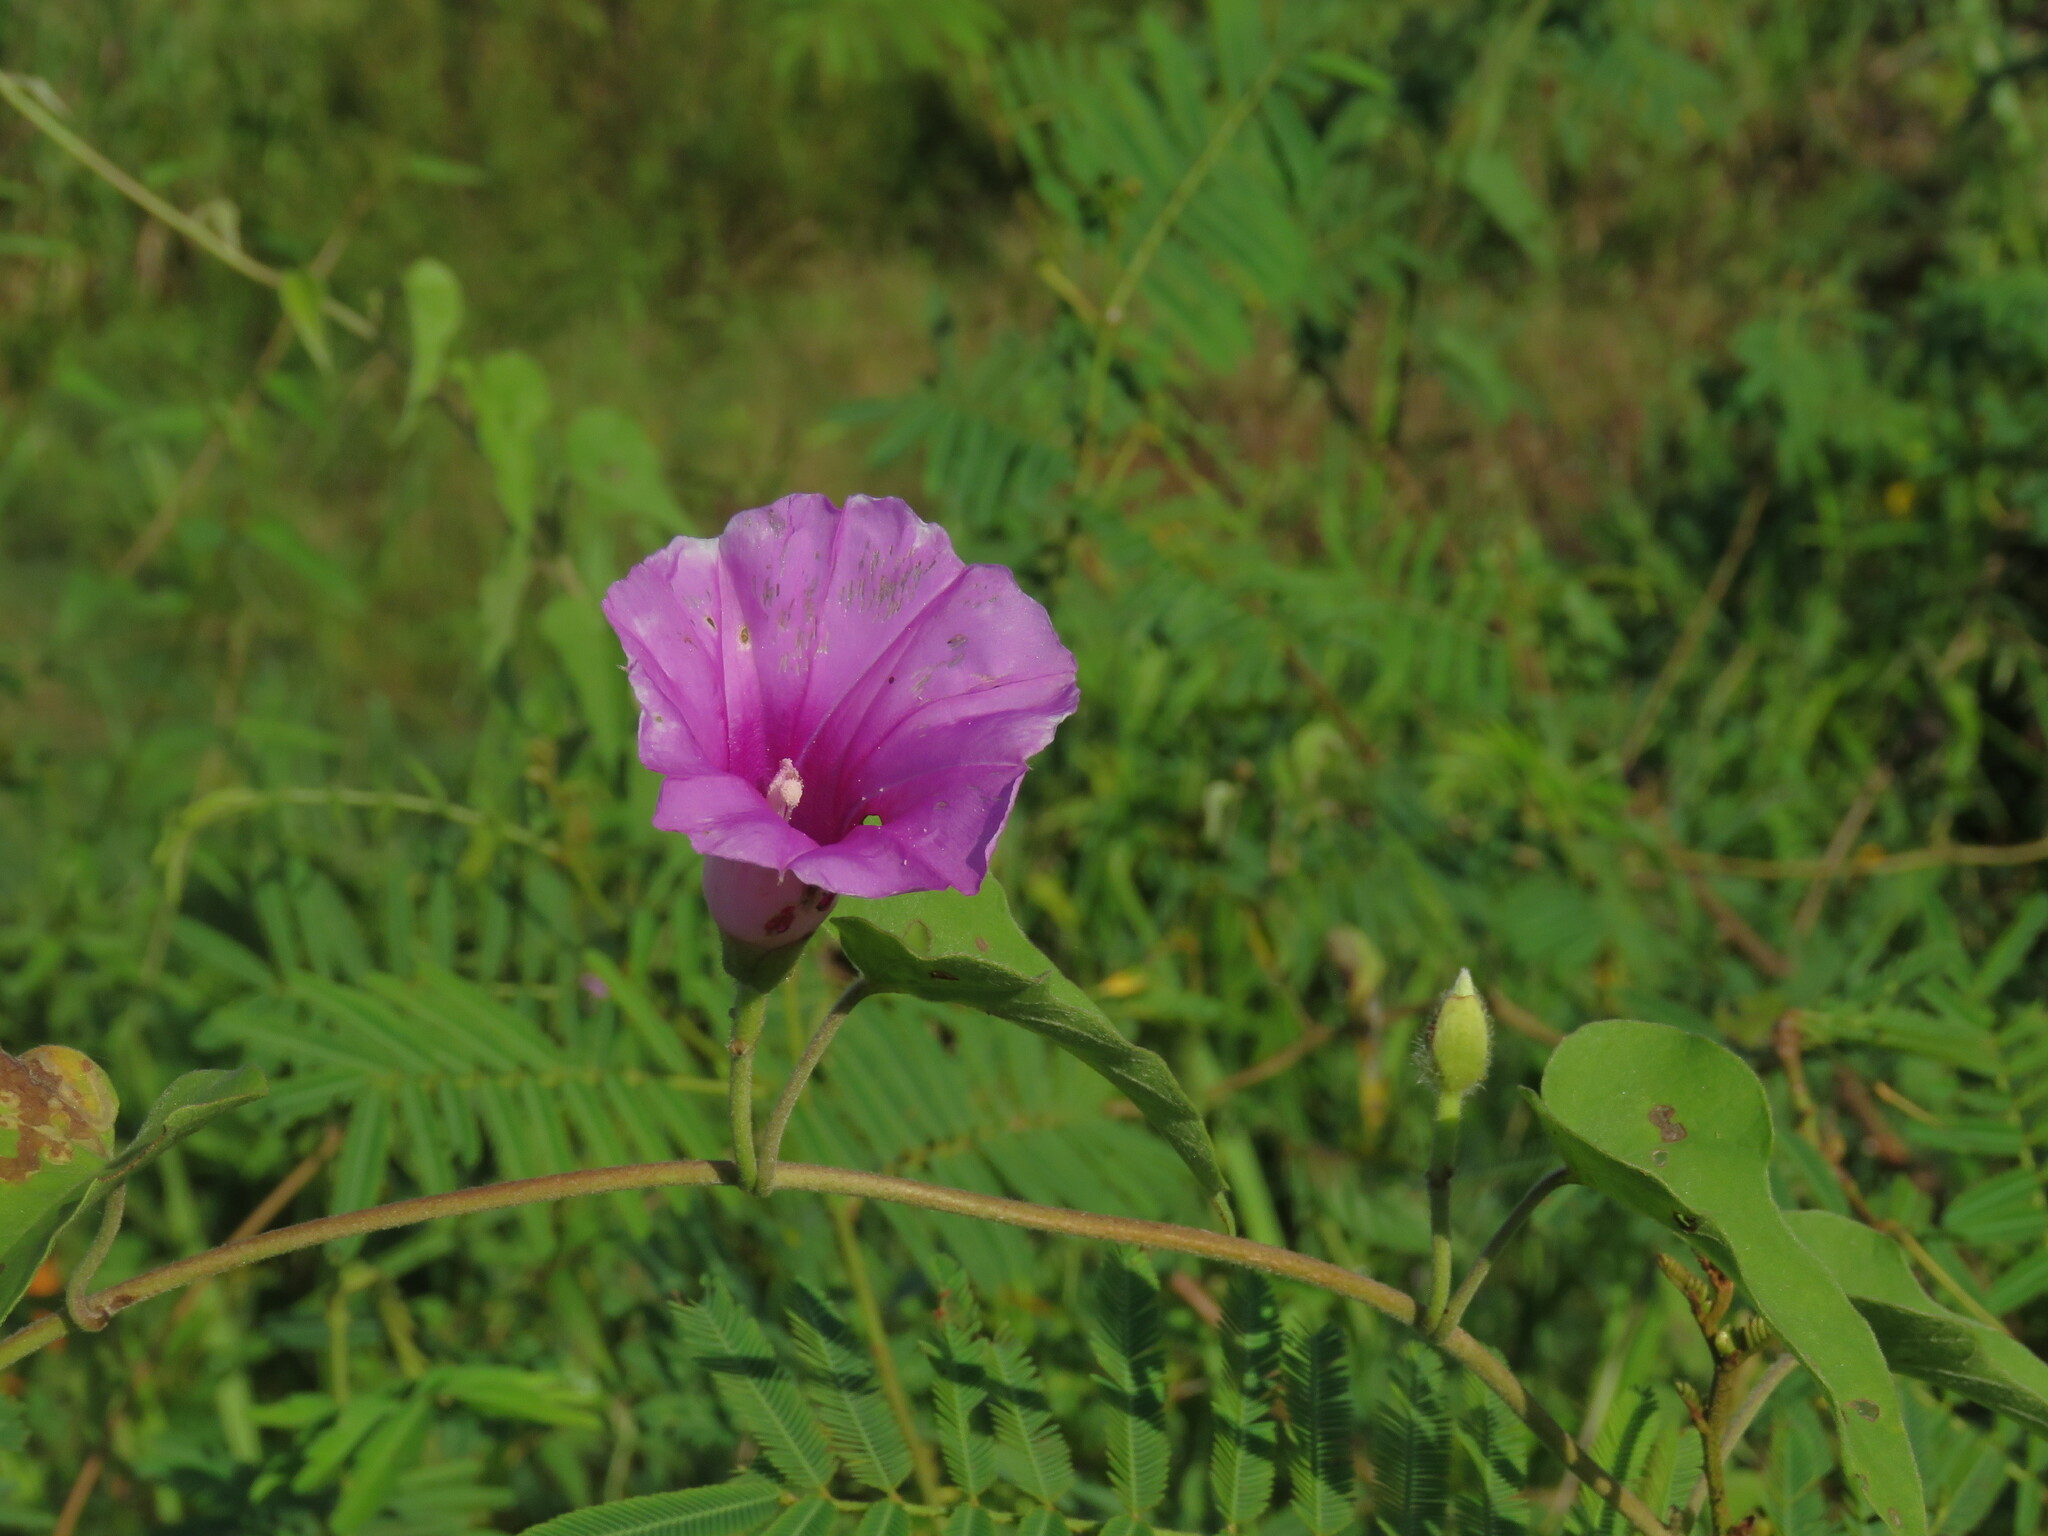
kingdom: Plantae
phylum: Tracheophyta
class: Magnoliopsida
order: Solanales
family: Convolvulaceae
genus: Ipomoea
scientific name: Ipomoea pedicellaris
